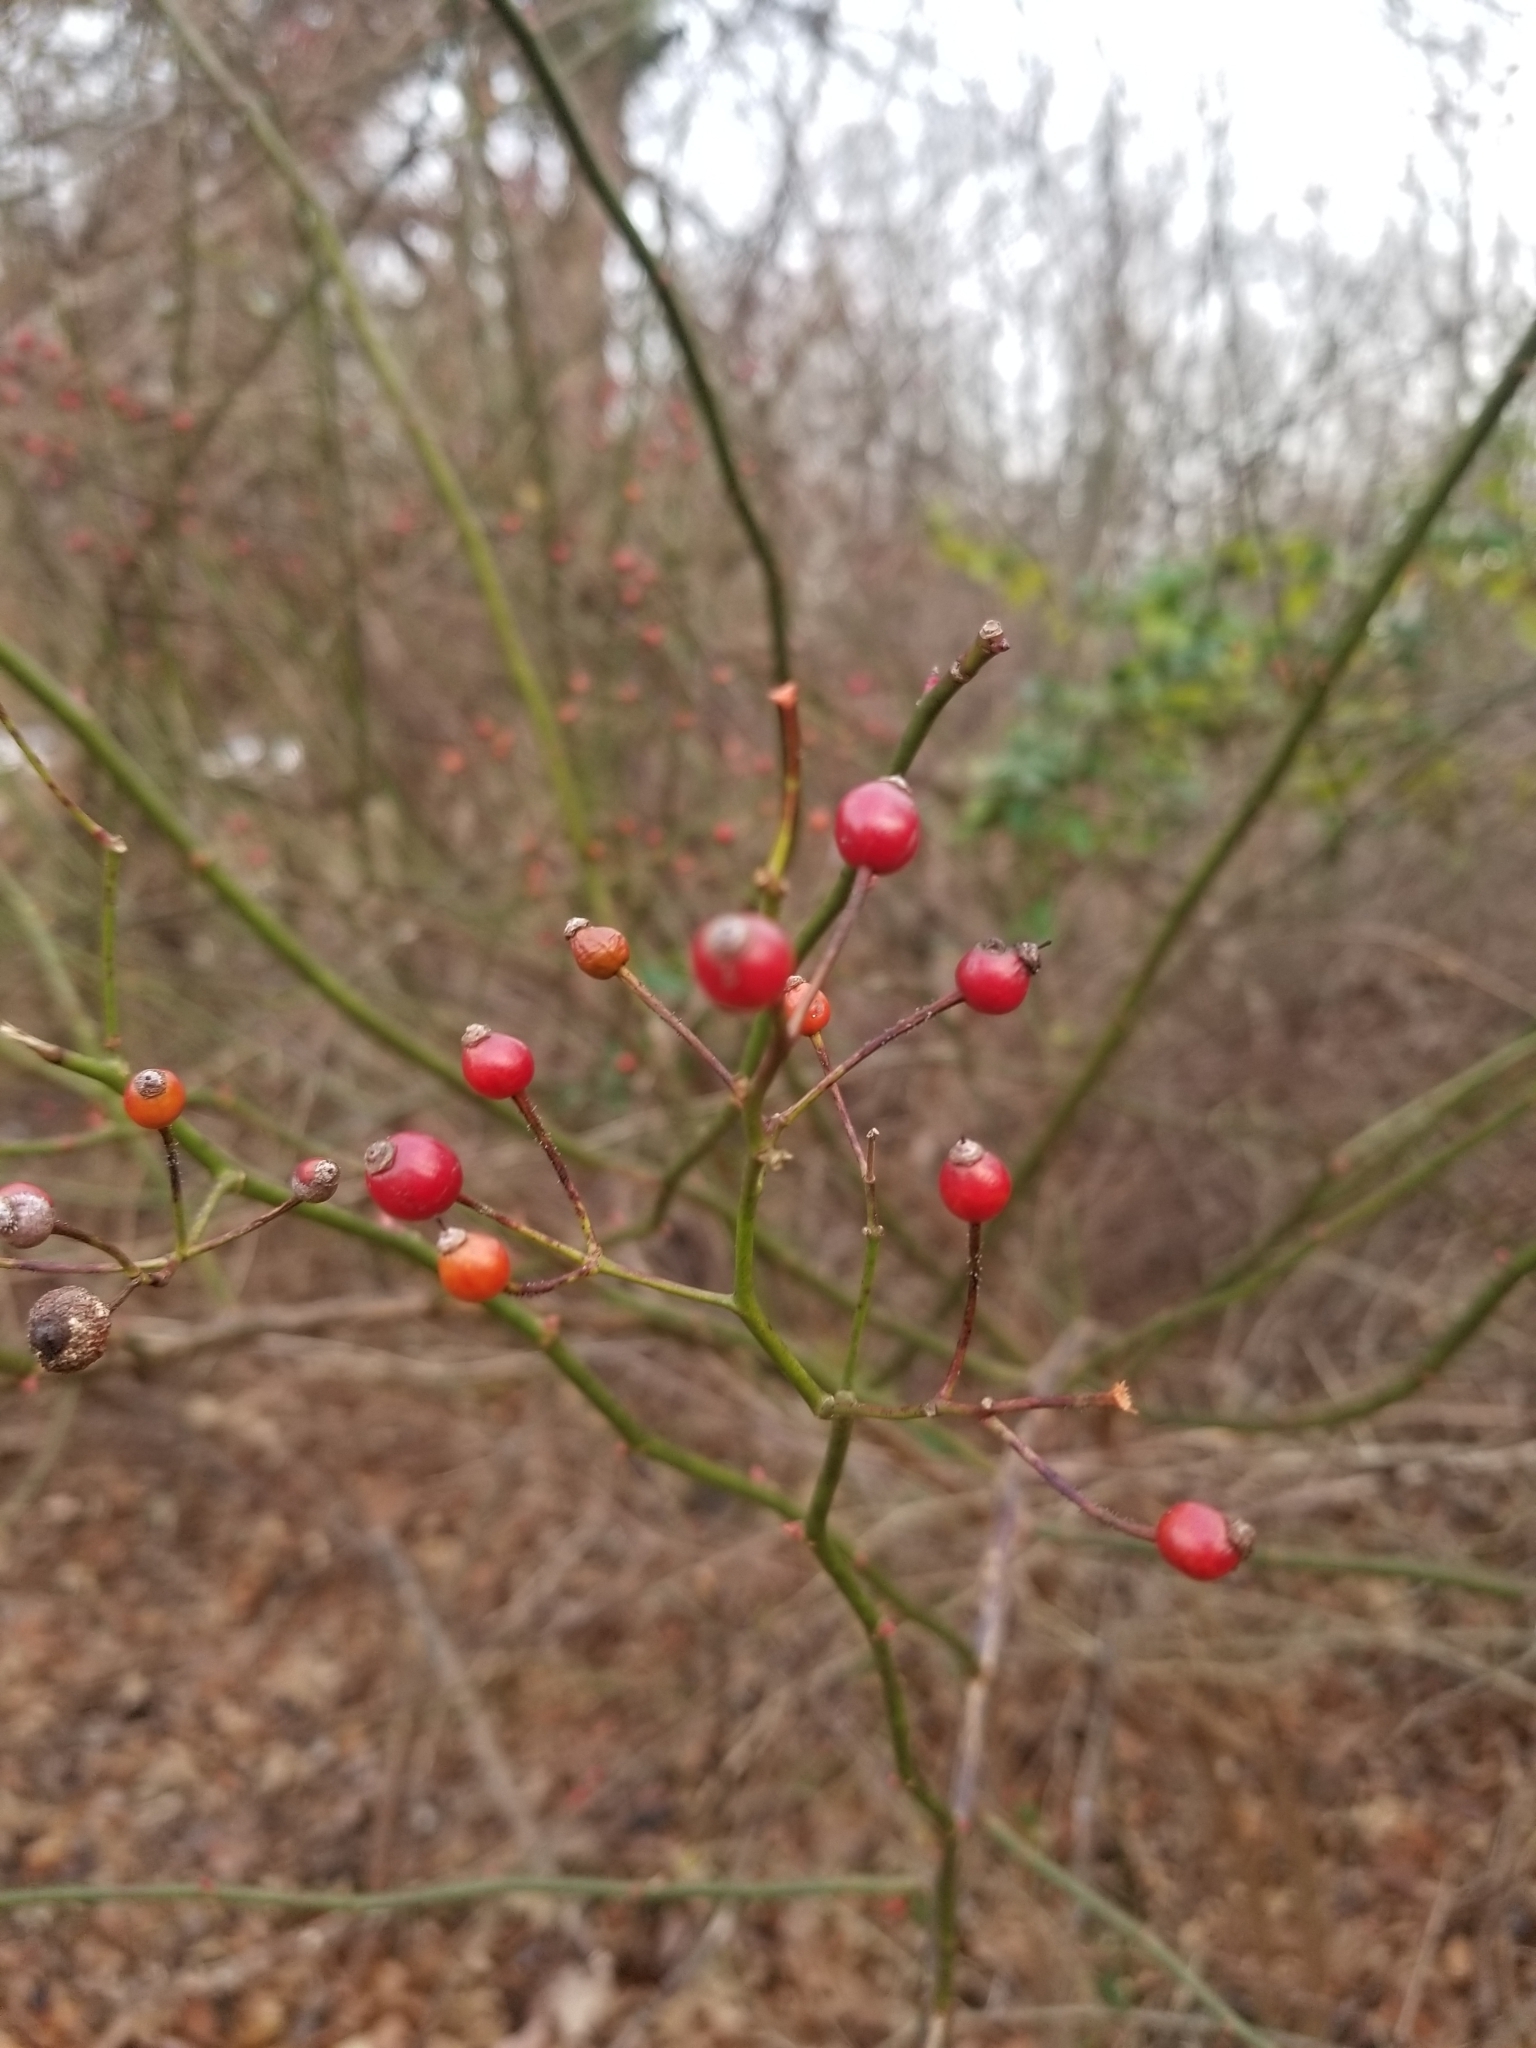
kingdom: Plantae
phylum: Tracheophyta
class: Magnoliopsida
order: Rosales
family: Rosaceae
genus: Rosa
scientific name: Rosa multiflora
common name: Multiflora rose
